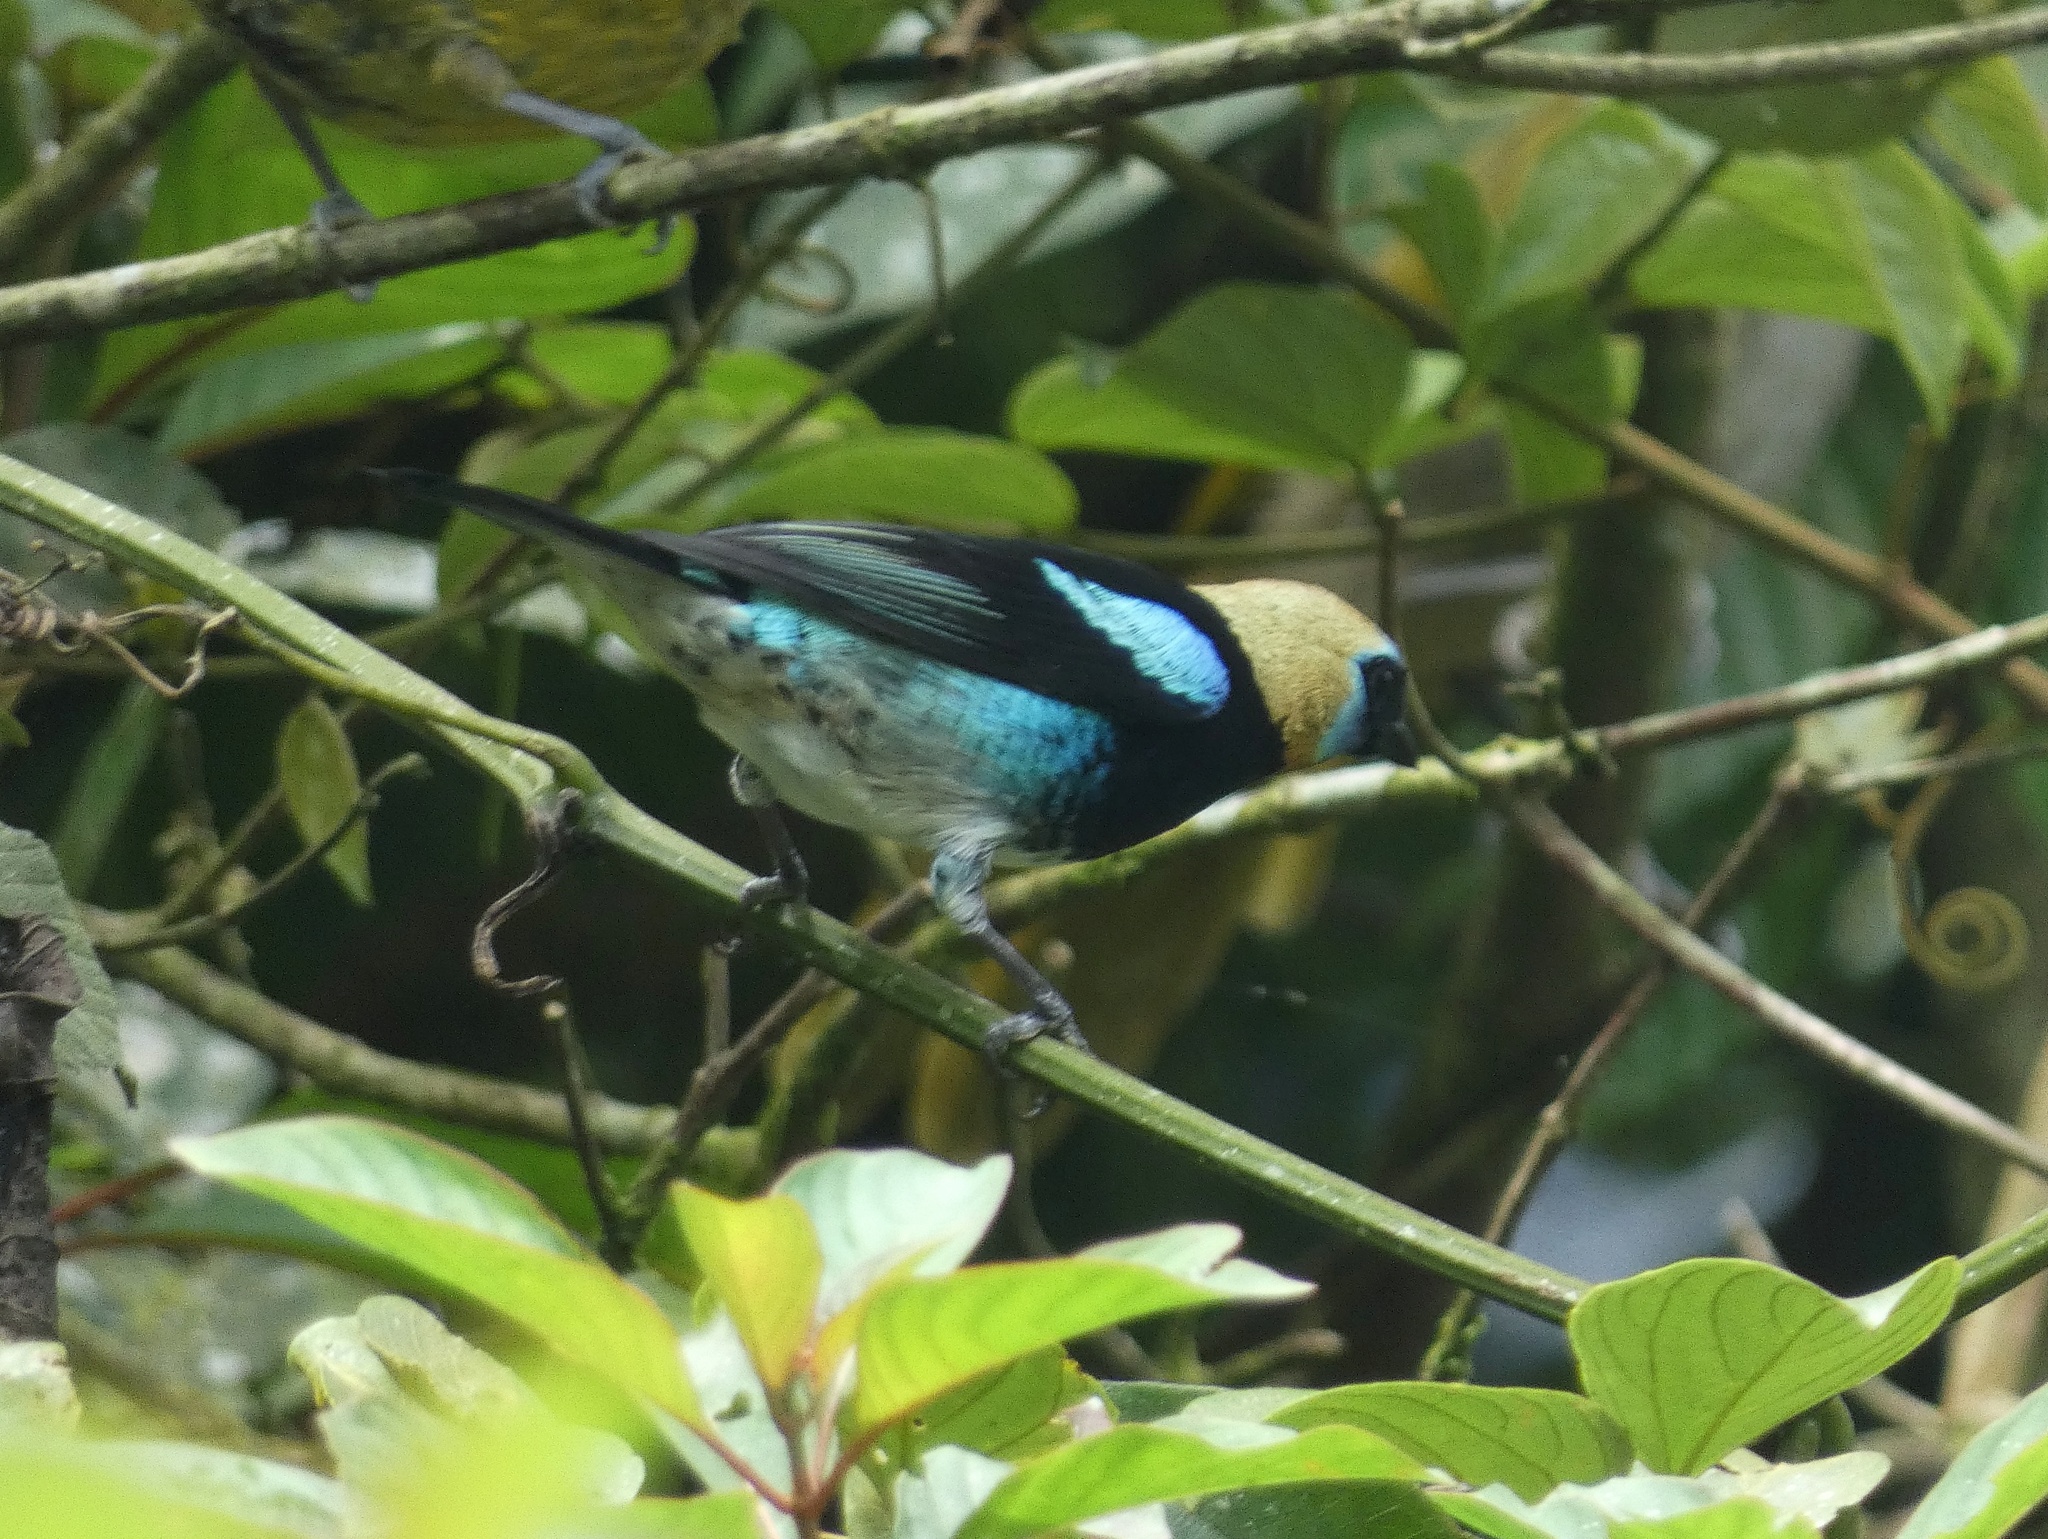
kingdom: Animalia
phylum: Chordata
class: Aves
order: Passeriformes
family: Thraupidae
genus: Stilpnia
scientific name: Stilpnia larvata
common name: Golden-hooded tanager
